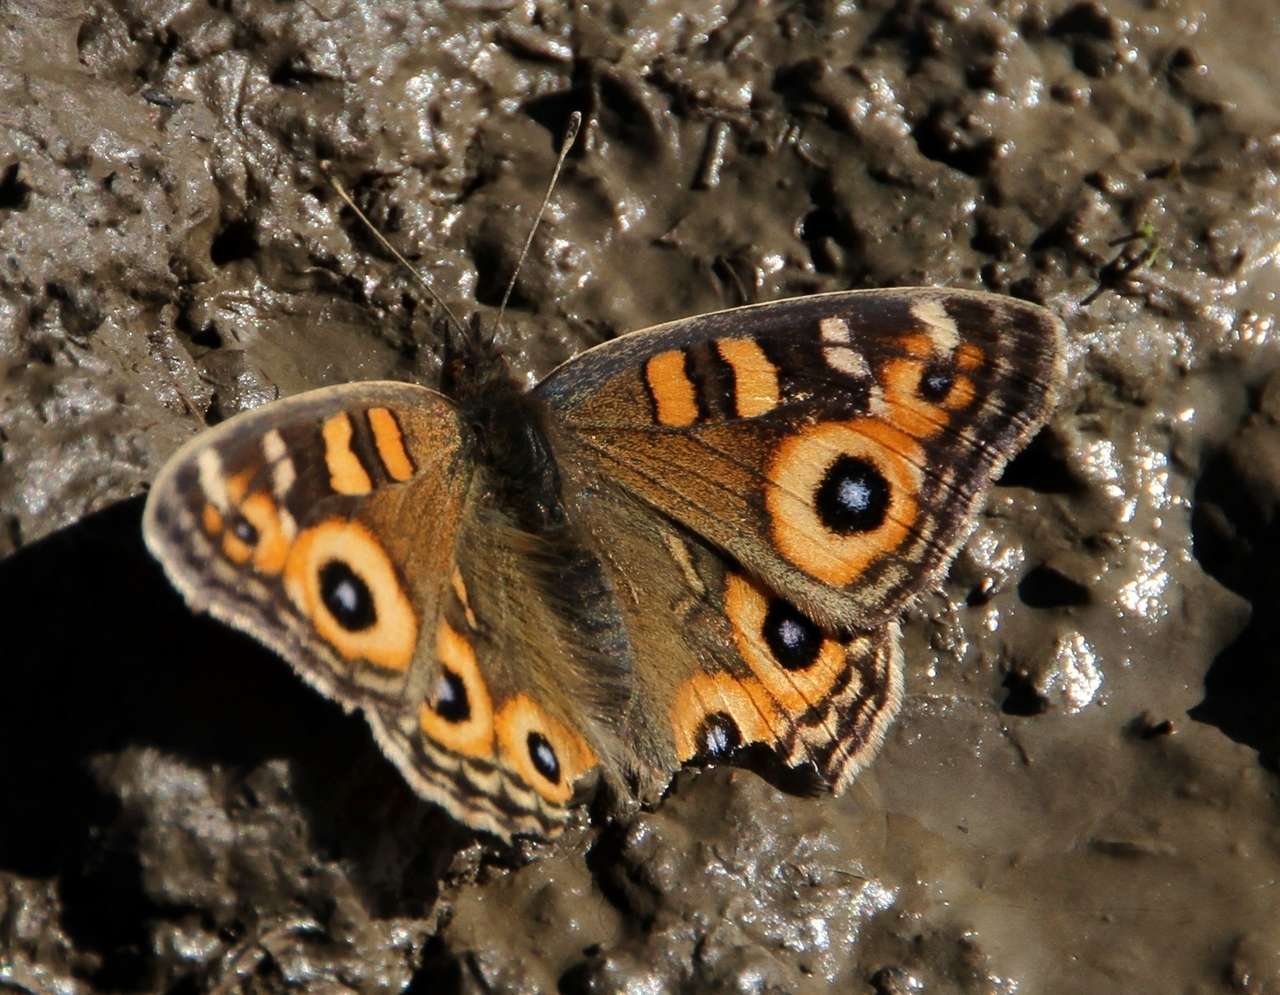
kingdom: Animalia
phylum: Arthropoda
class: Insecta
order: Lepidoptera
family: Nymphalidae
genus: Junonia
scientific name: Junonia villida
